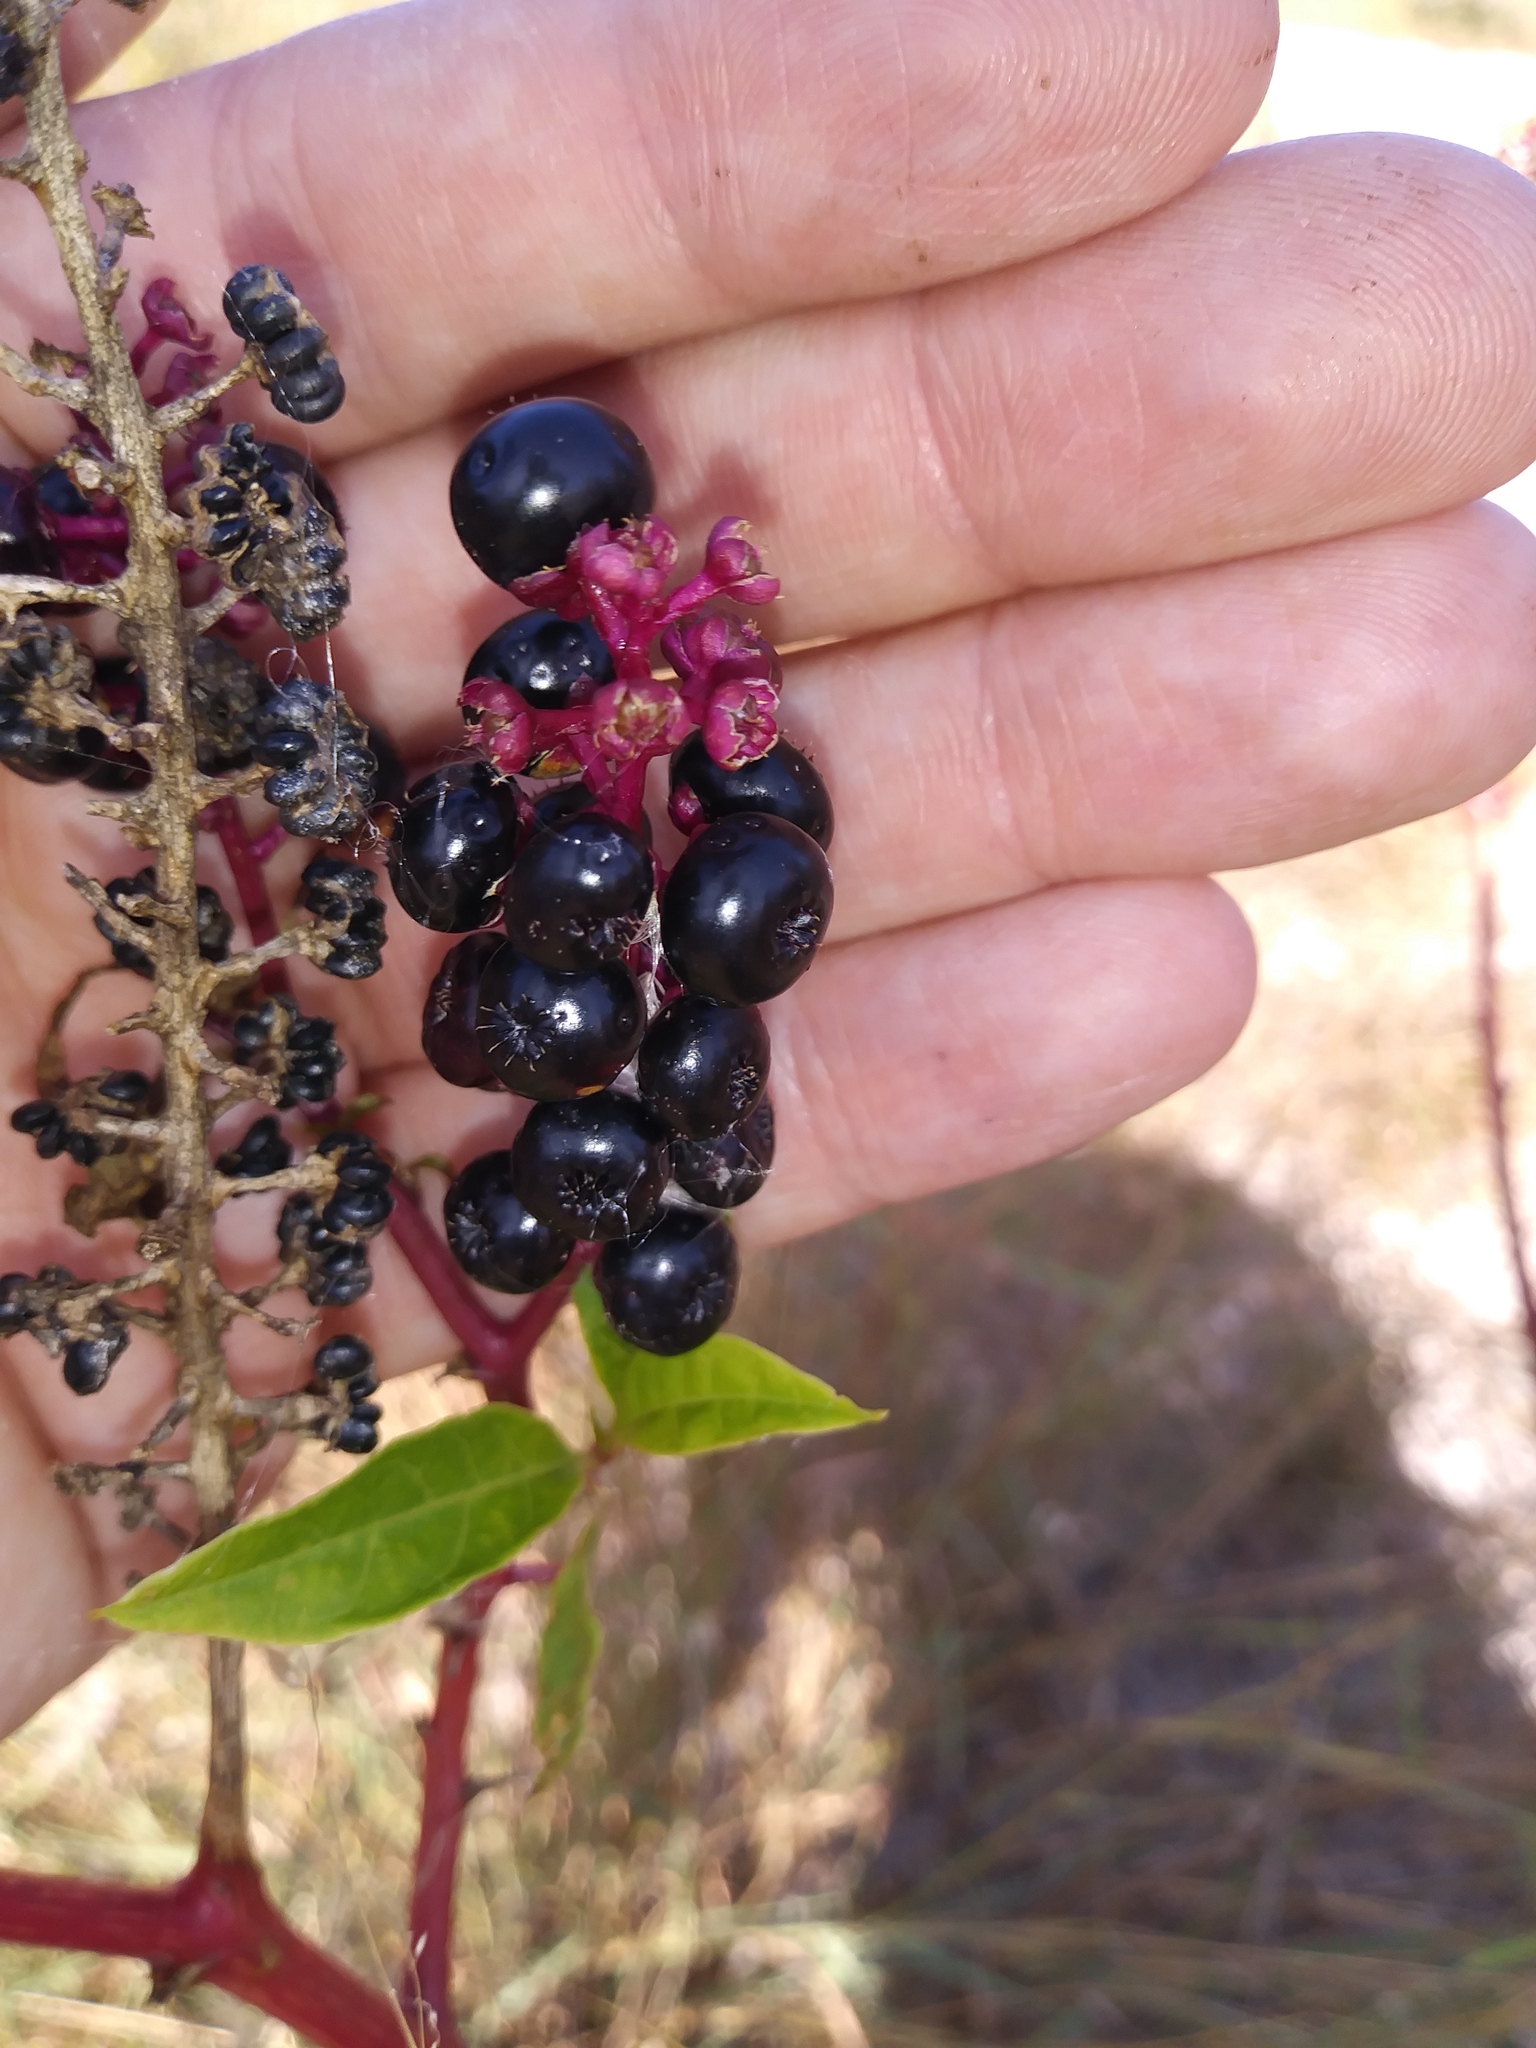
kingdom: Plantae
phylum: Tracheophyta
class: Magnoliopsida
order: Caryophyllales
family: Phytolaccaceae
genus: Phytolacca
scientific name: Phytolacca americana
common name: American pokeweed
